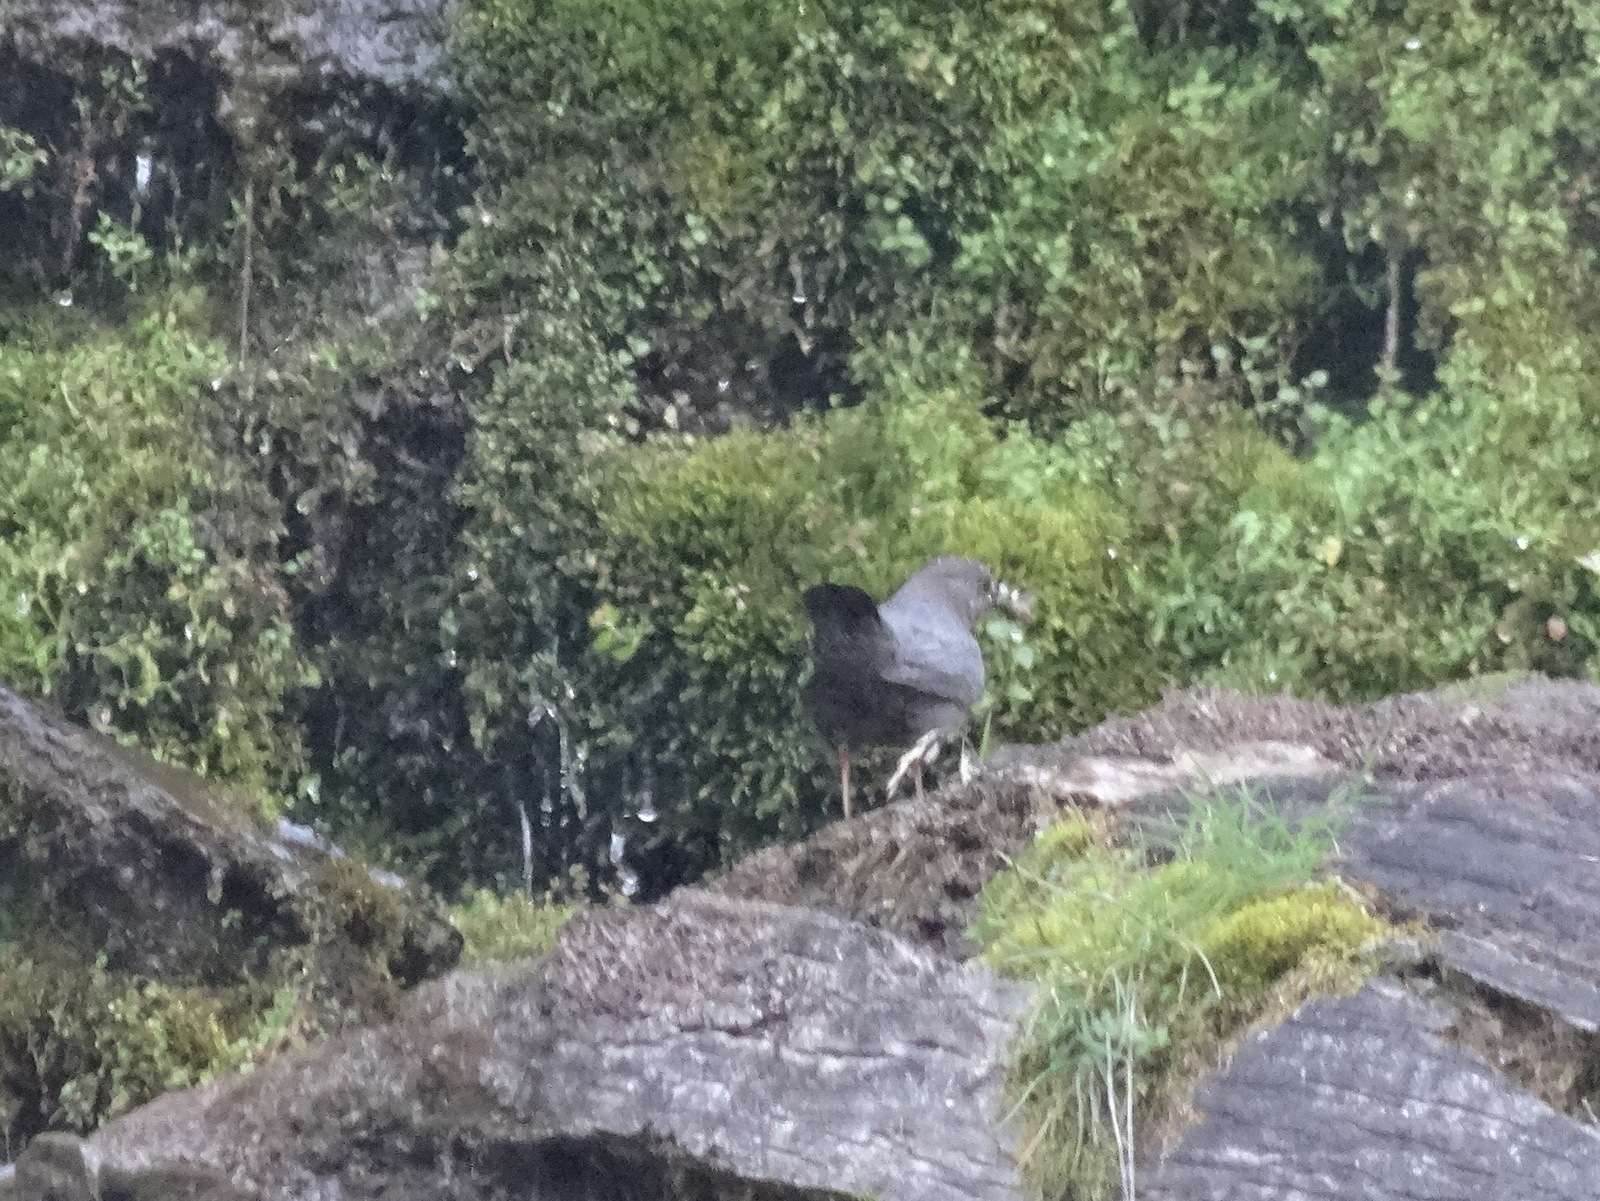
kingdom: Animalia
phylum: Chordata
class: Aves
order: Passeriformes
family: Cinclidae
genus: Cinclus
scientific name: Cinclus mexicanus
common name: American dipper
